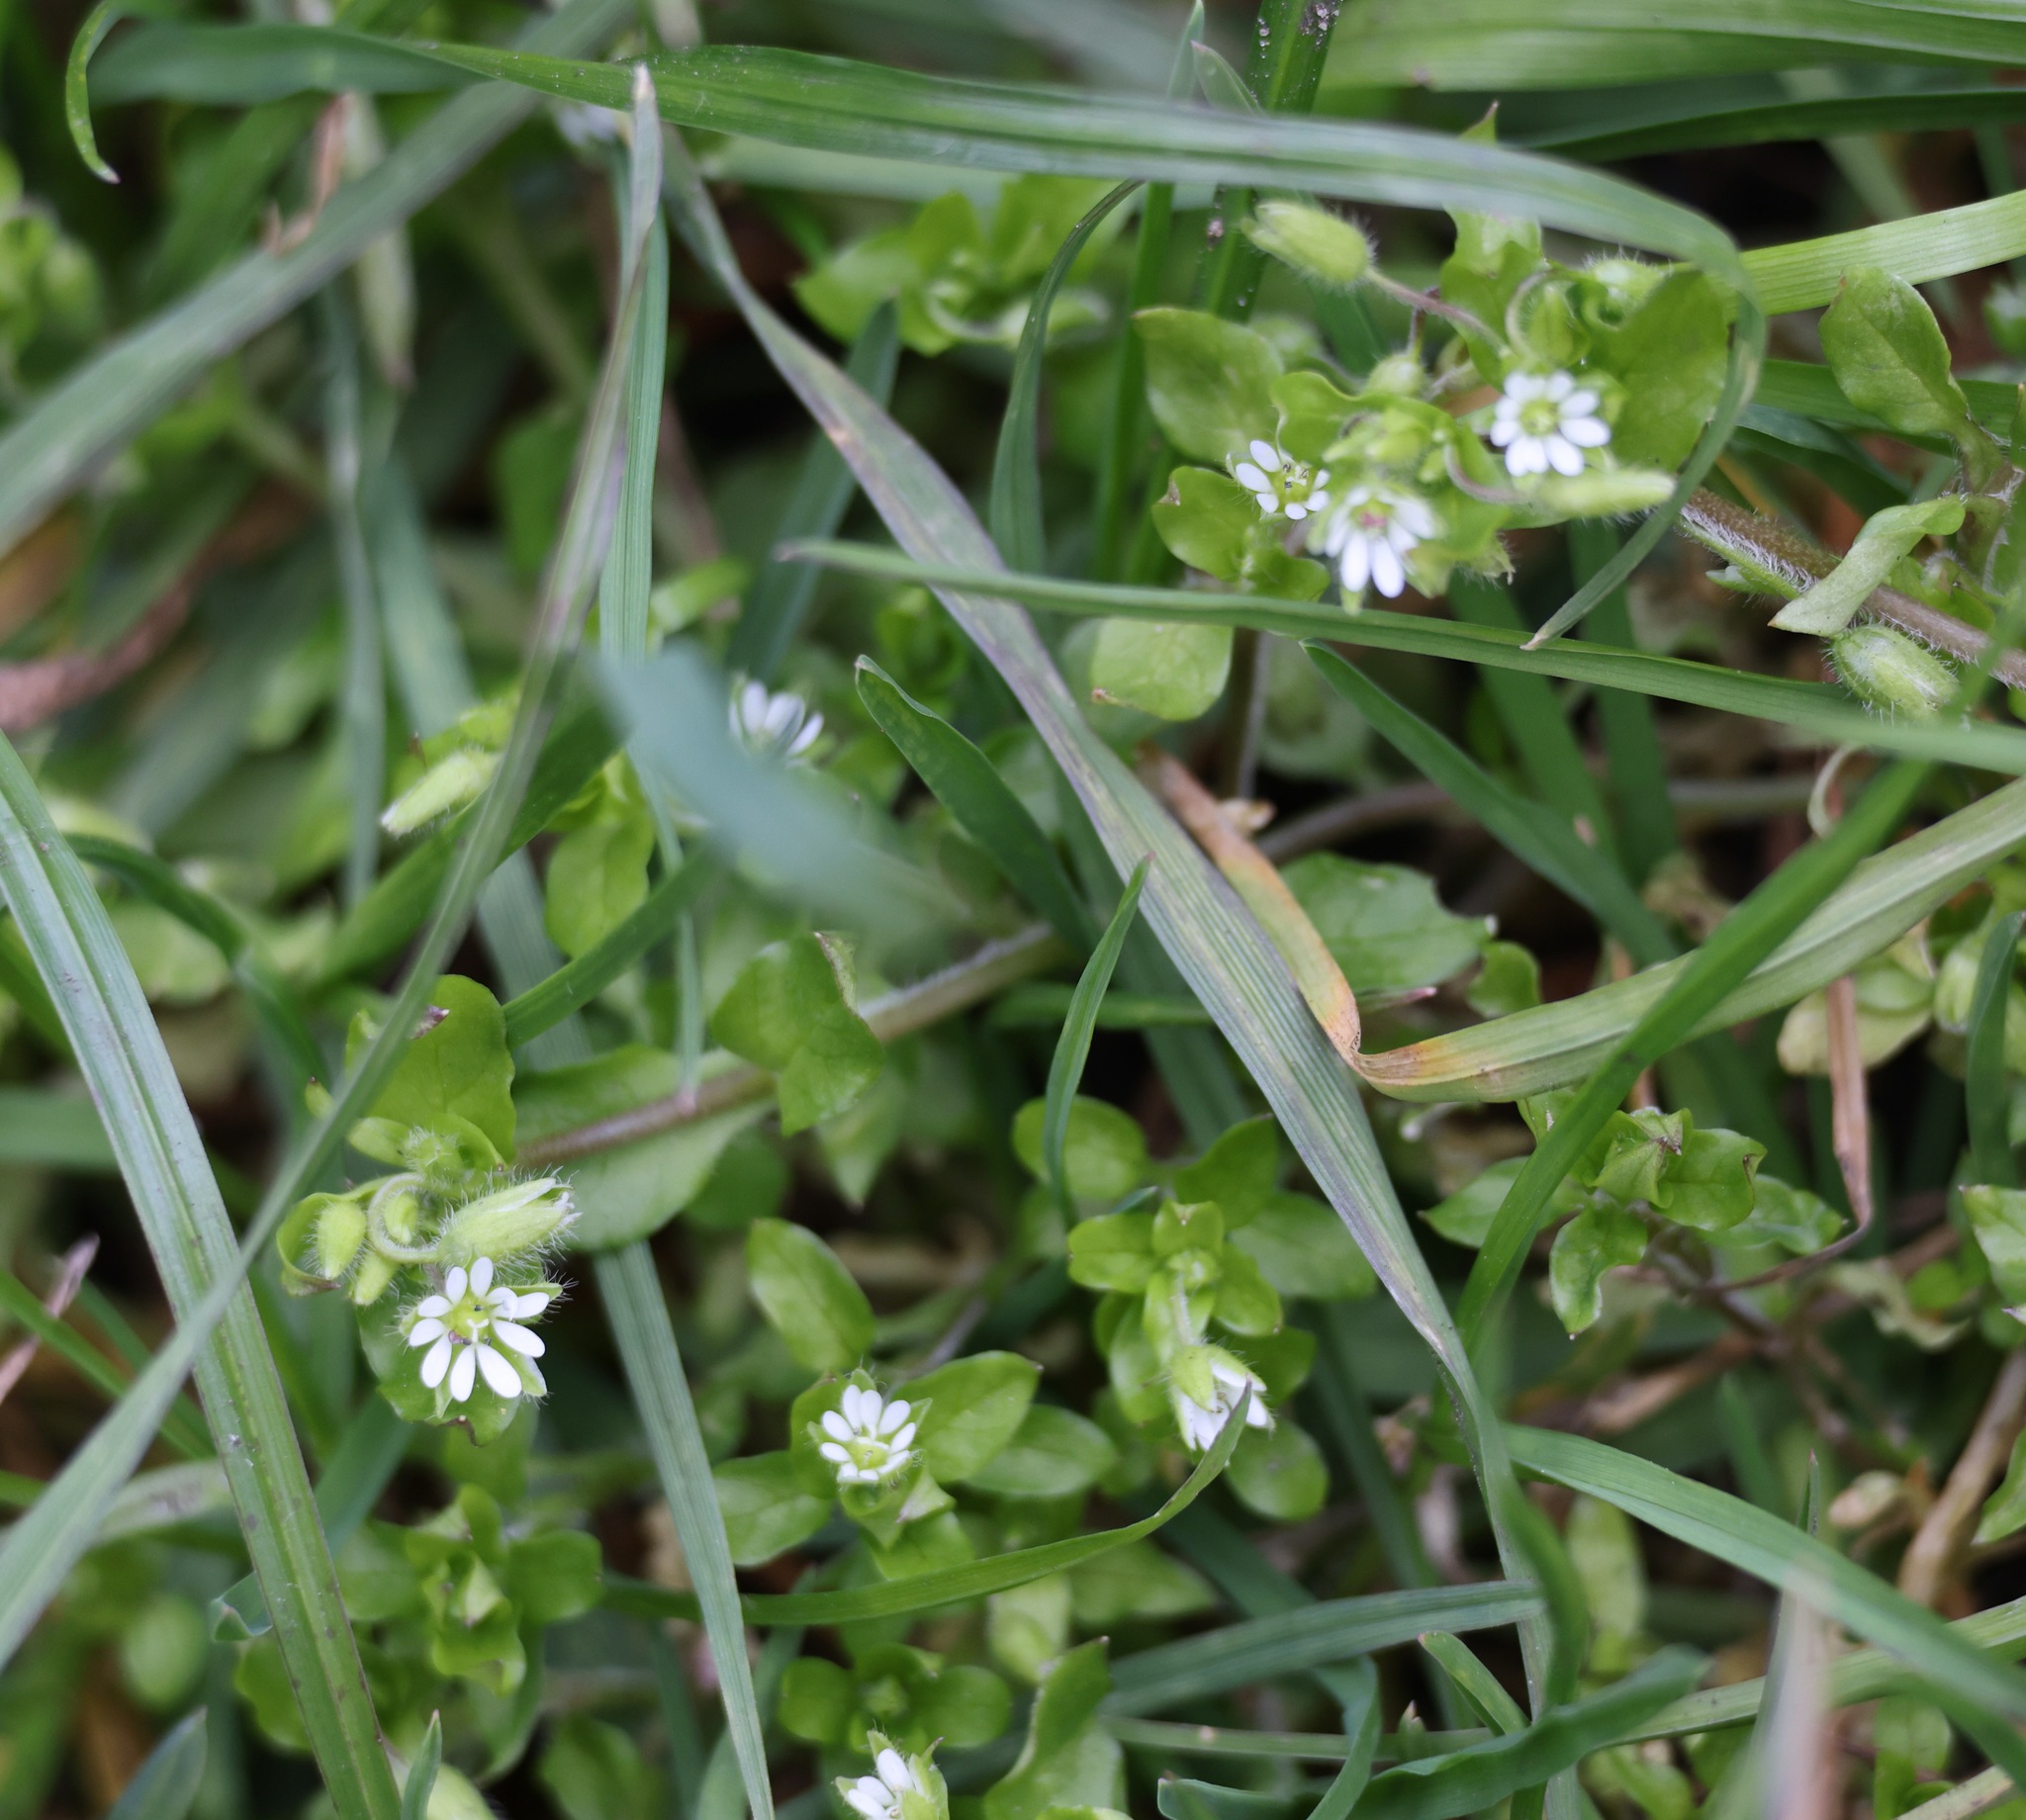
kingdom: Plantae
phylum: Tracheophyta
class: Magnoliopsida
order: Caryophyllales
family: Caryophyllaceae
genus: Stellaria
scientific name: Stellaria media
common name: Common chickweed
